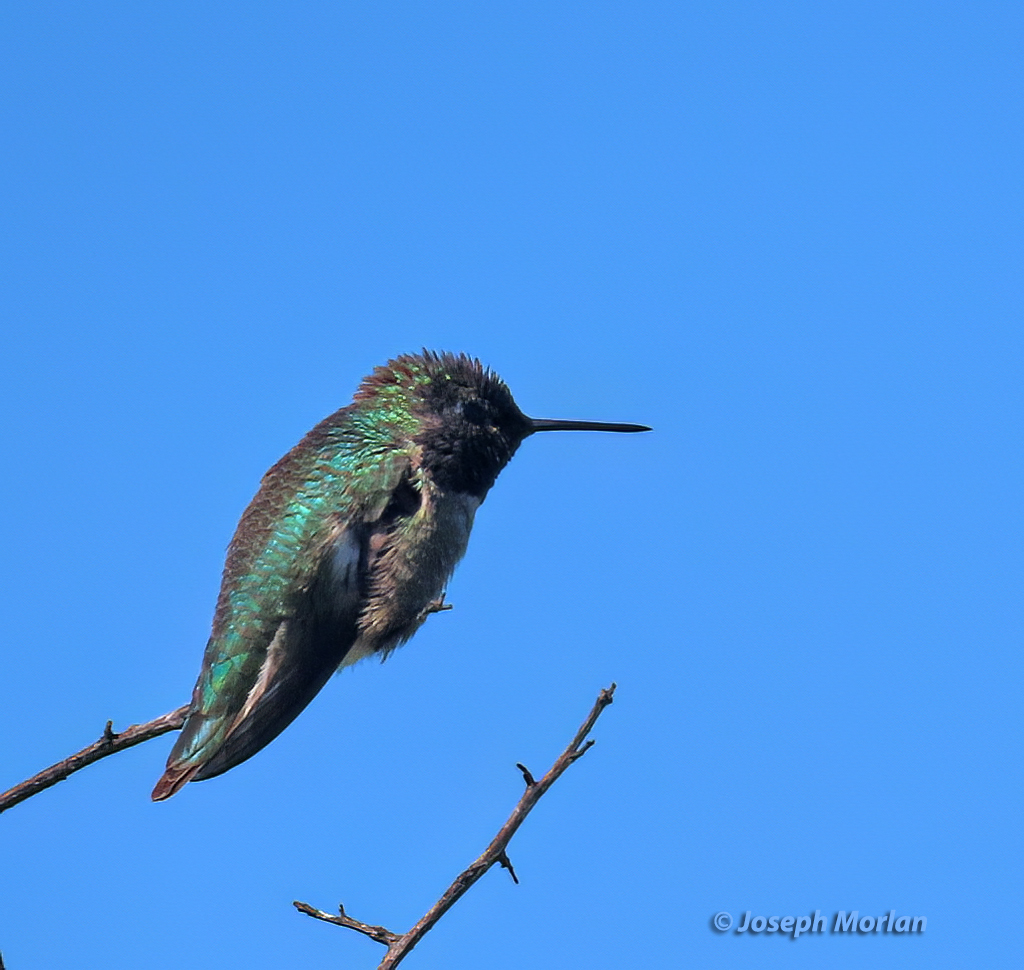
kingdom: Animalia
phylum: Chordata
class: Aves
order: Apodiformes
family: Trochilidae
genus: Calypte
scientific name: Calypte anna
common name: Anna's hummingbird
